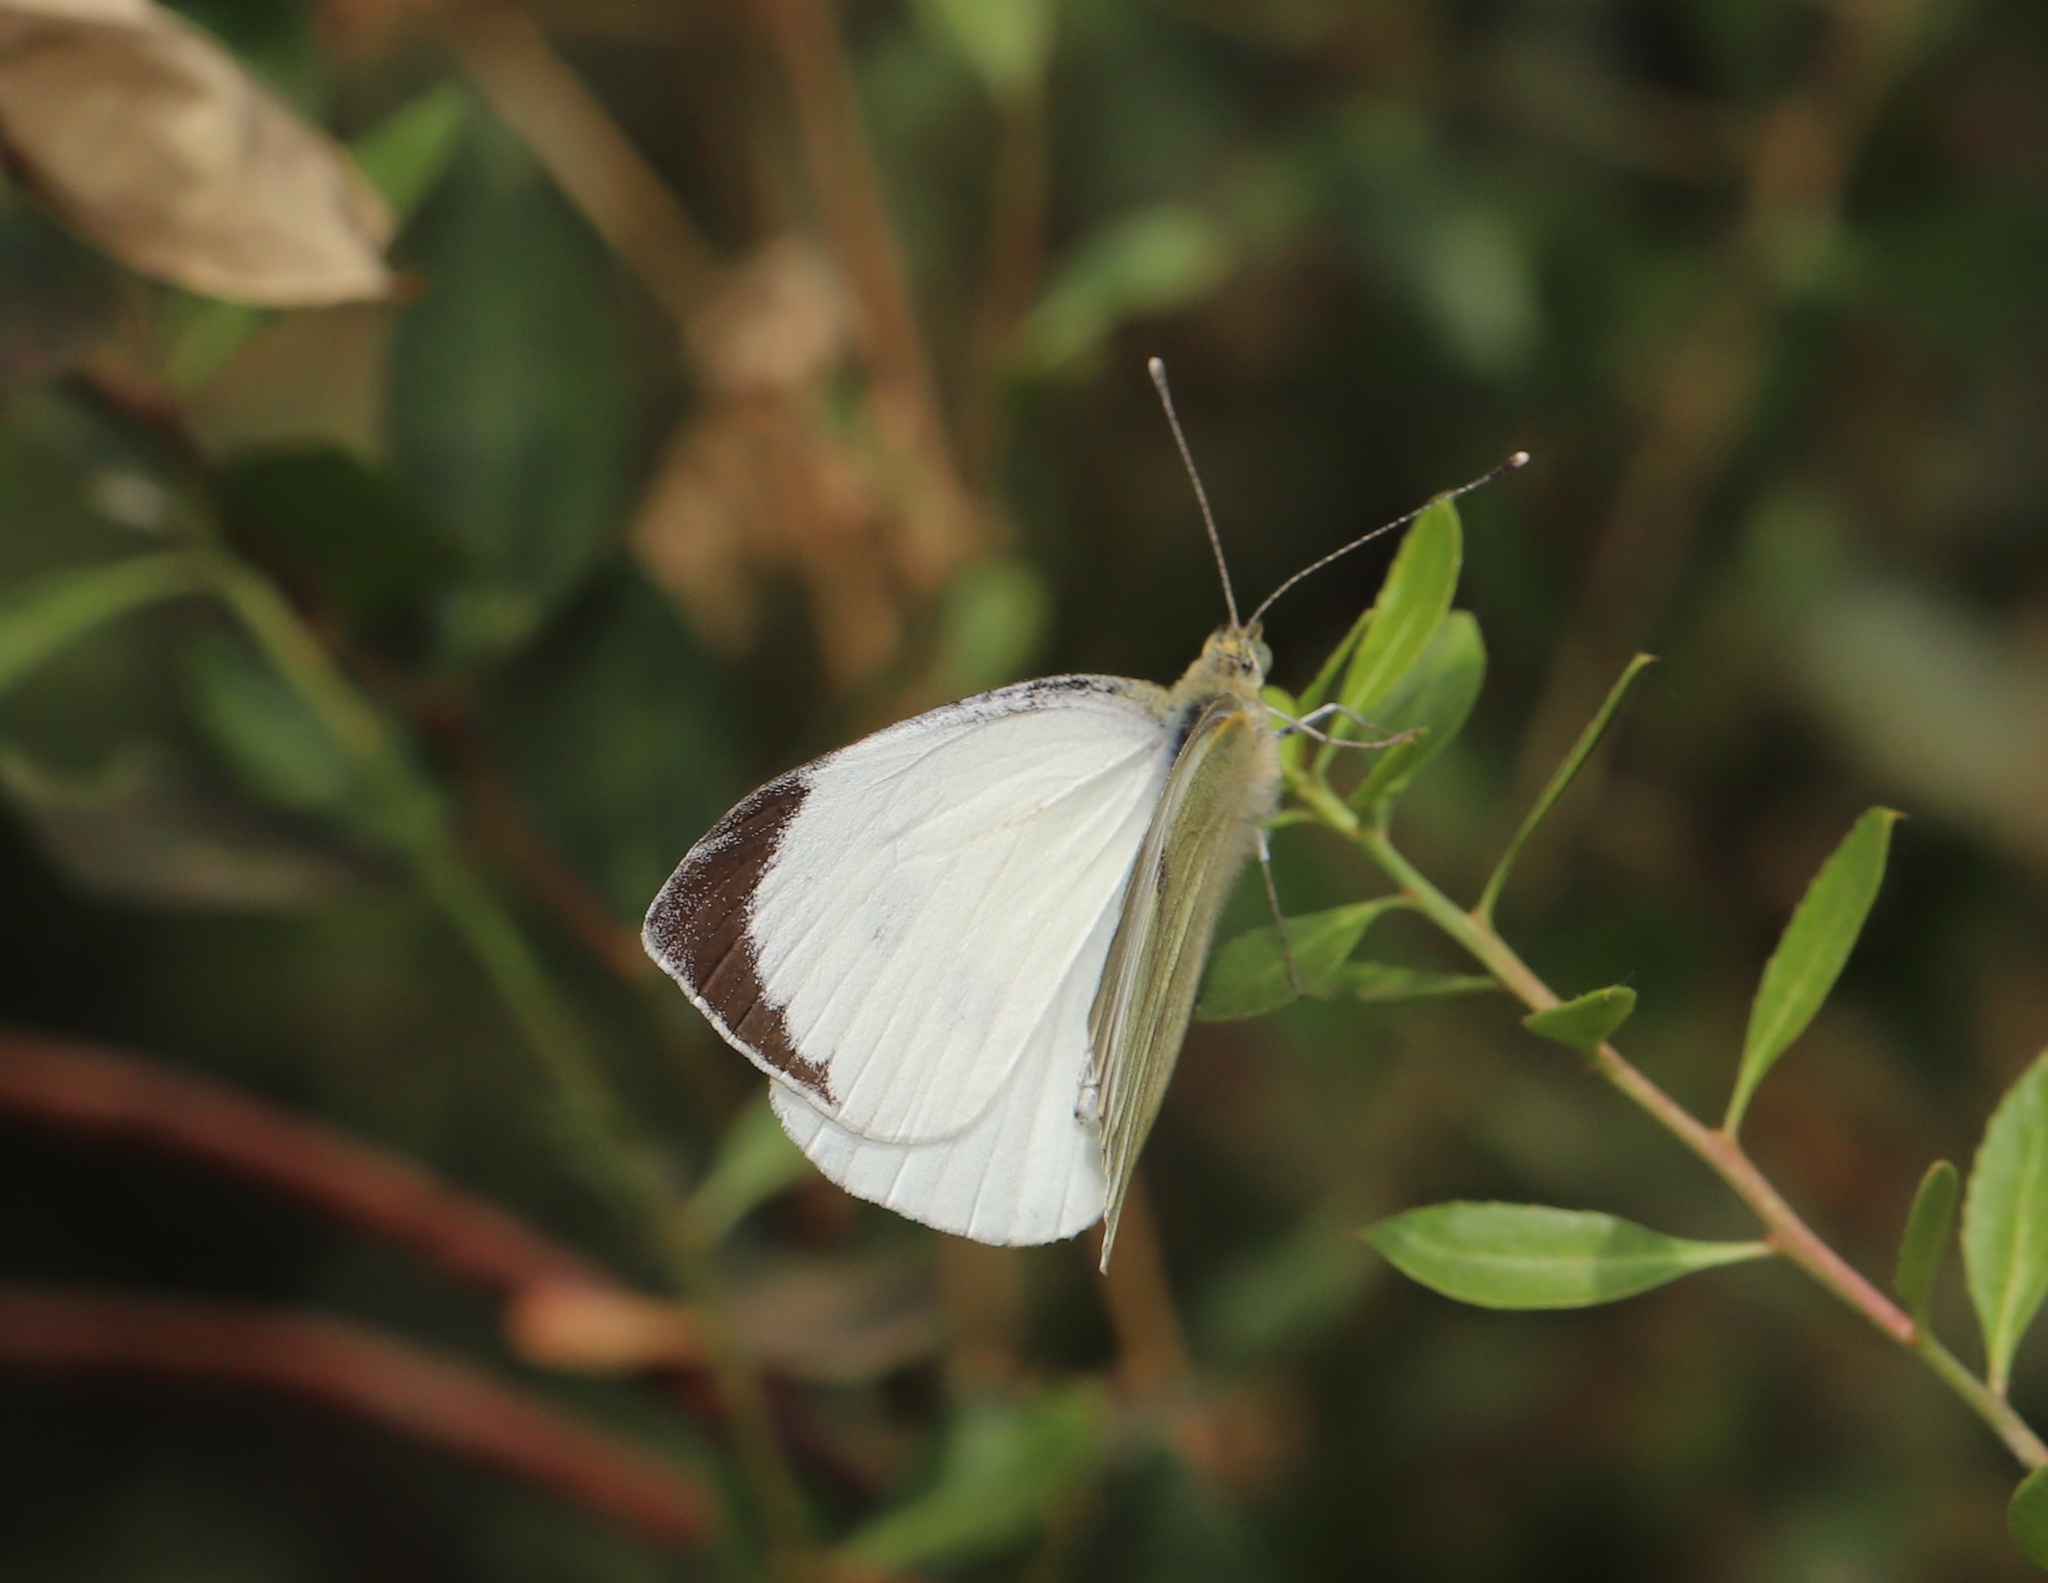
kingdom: Animalia
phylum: Arthropoda
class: Insecta
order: Lepidoptera
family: Pieridae
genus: Pieris
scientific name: Pieris brassicae
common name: Large white
